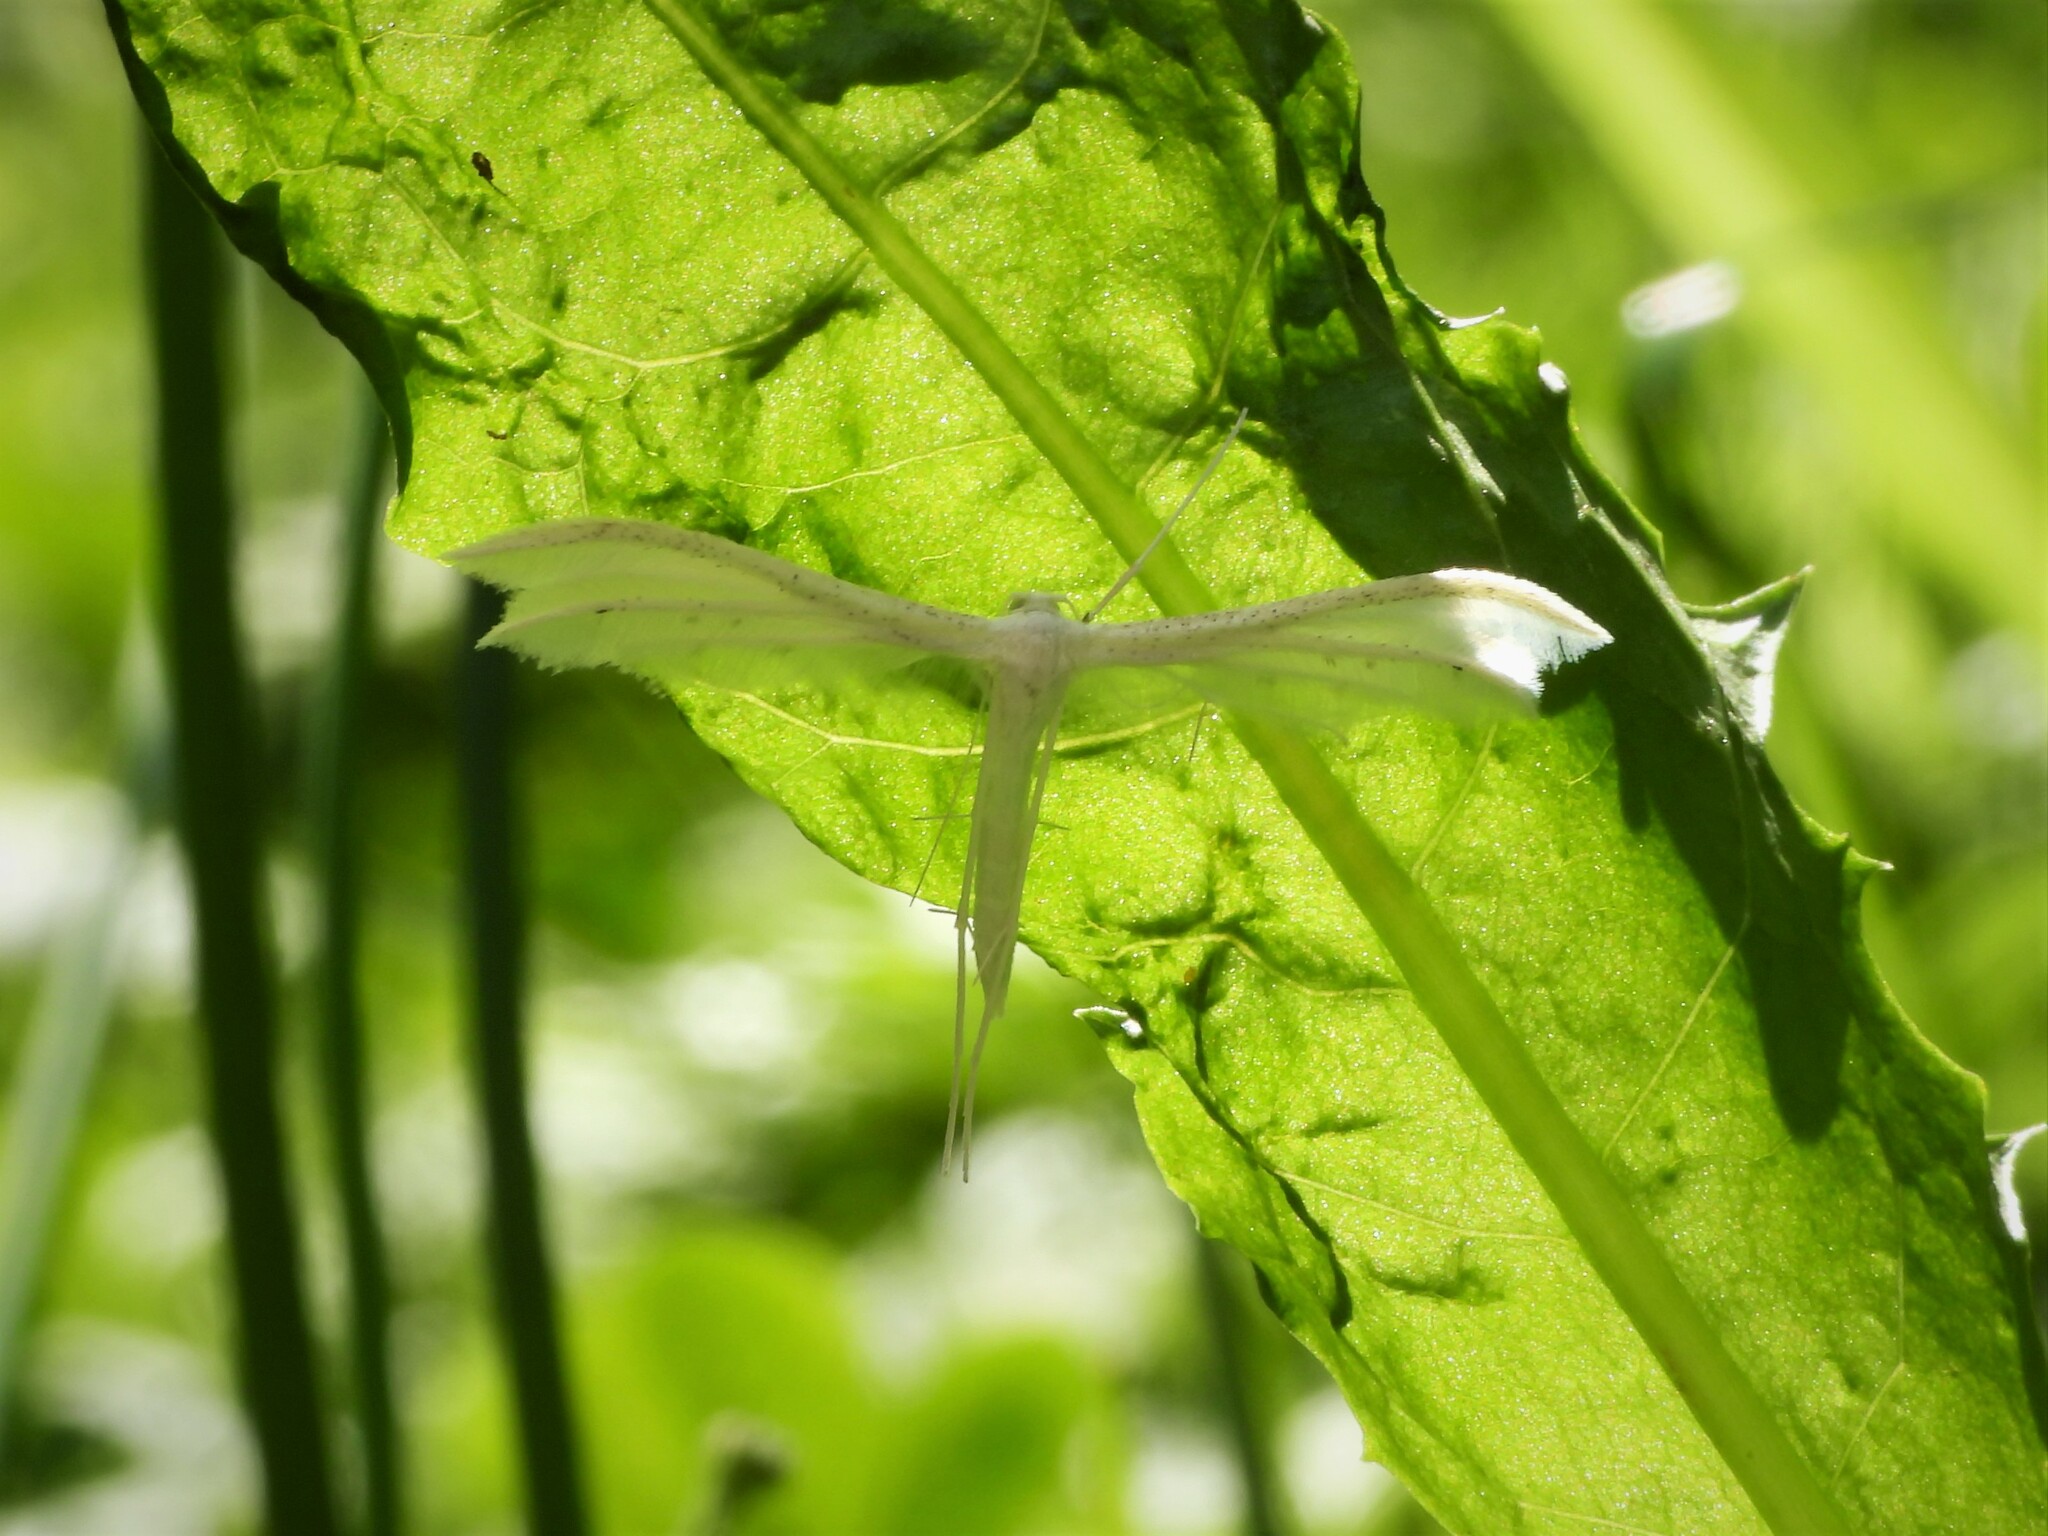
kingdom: Animalia
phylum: Arthropoda
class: Insecta
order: Lepidoptera
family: Pterophoridae
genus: Pterophorus
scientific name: Pterophorus pentadactyla
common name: White plume moth
